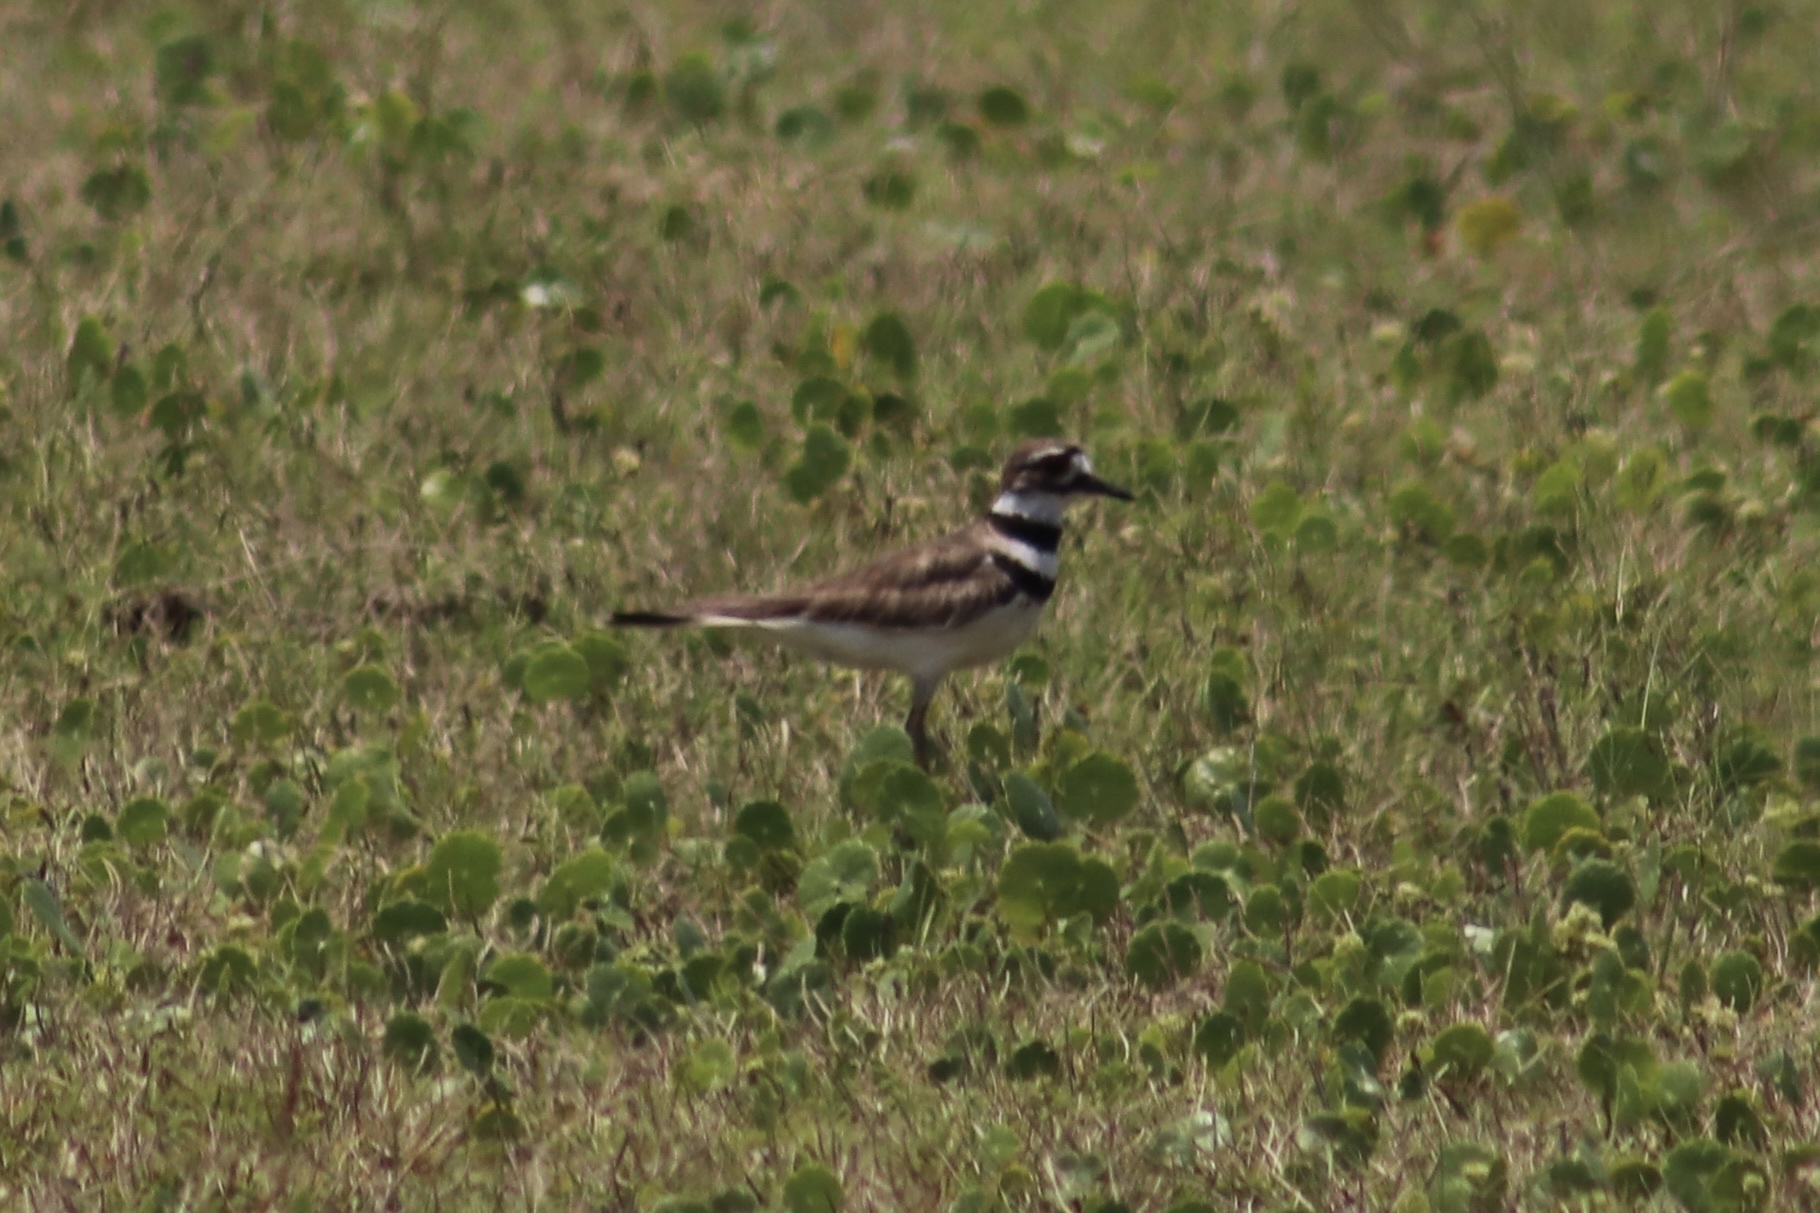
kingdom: Animalia
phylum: Chordata
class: Aves
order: Charadriiformes
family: Charadriidae
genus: Charadrius
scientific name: Charadrius vociferus
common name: Killdeer
